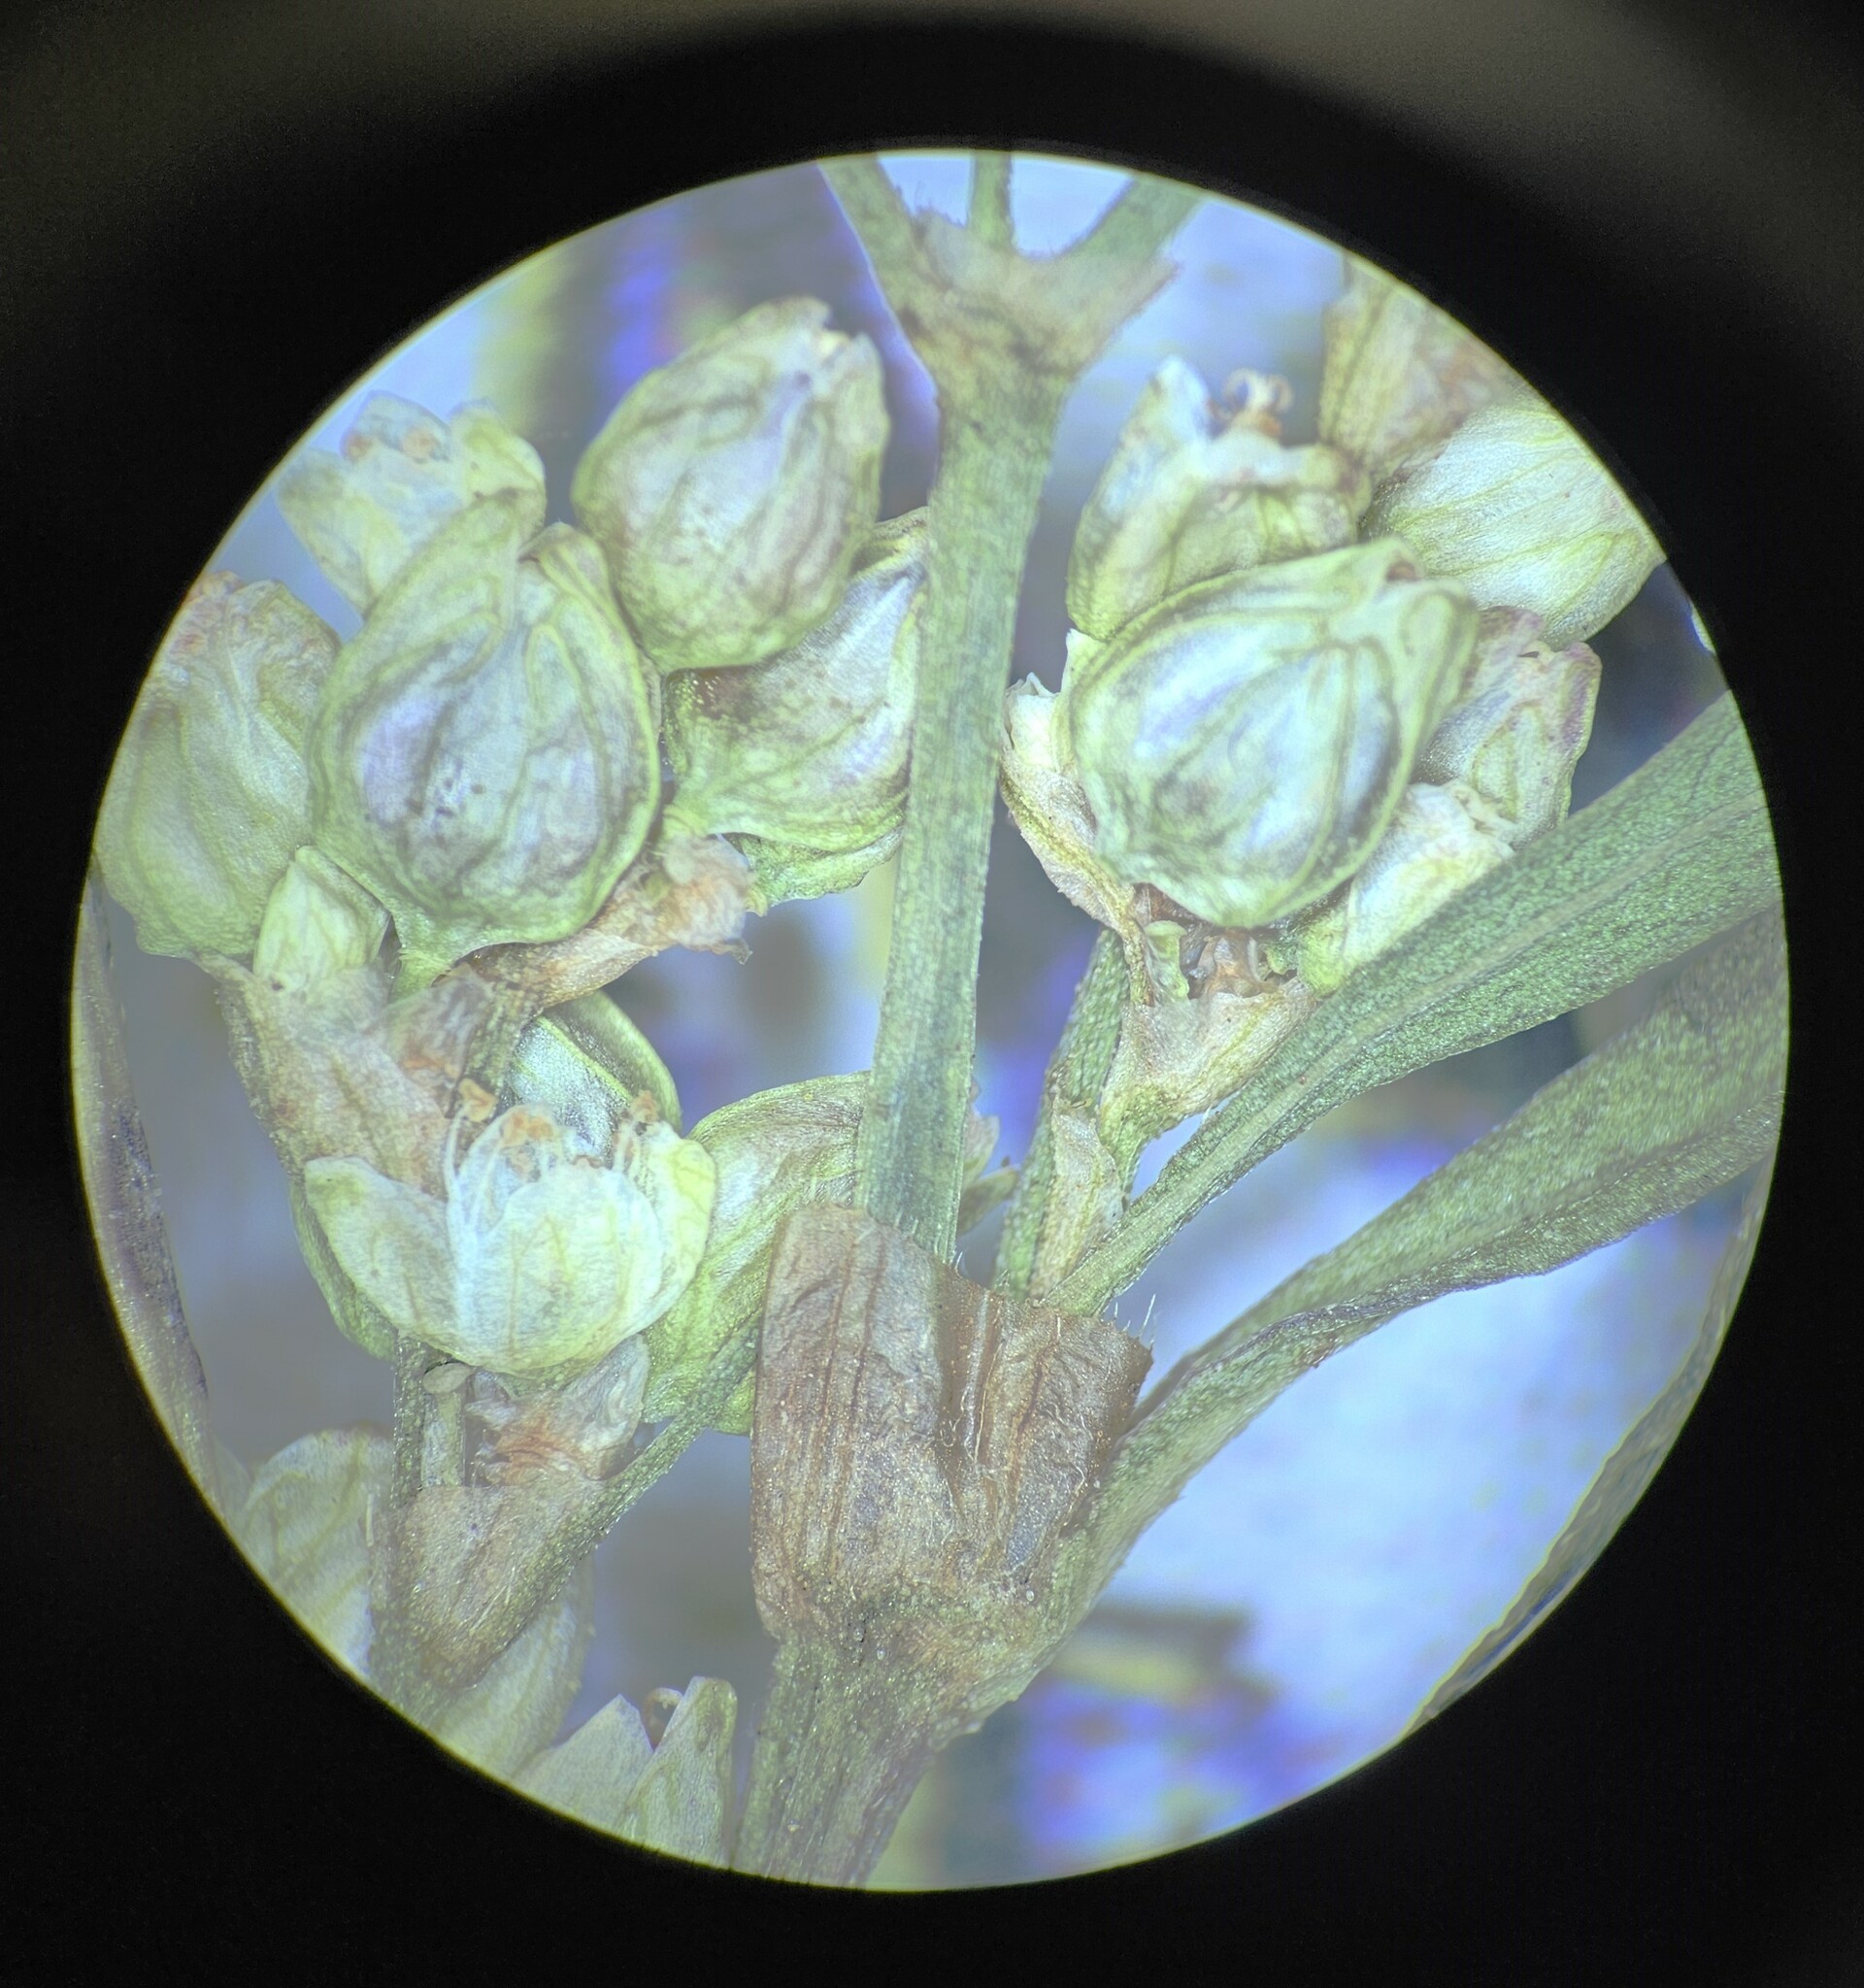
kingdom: Plantae
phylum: Tracheophyta
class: Magnoliopsida
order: Caryophyllales
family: Polygonaceae
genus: Persicaria
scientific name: Persicaria lapathifolia
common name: Curlytop knotweed
